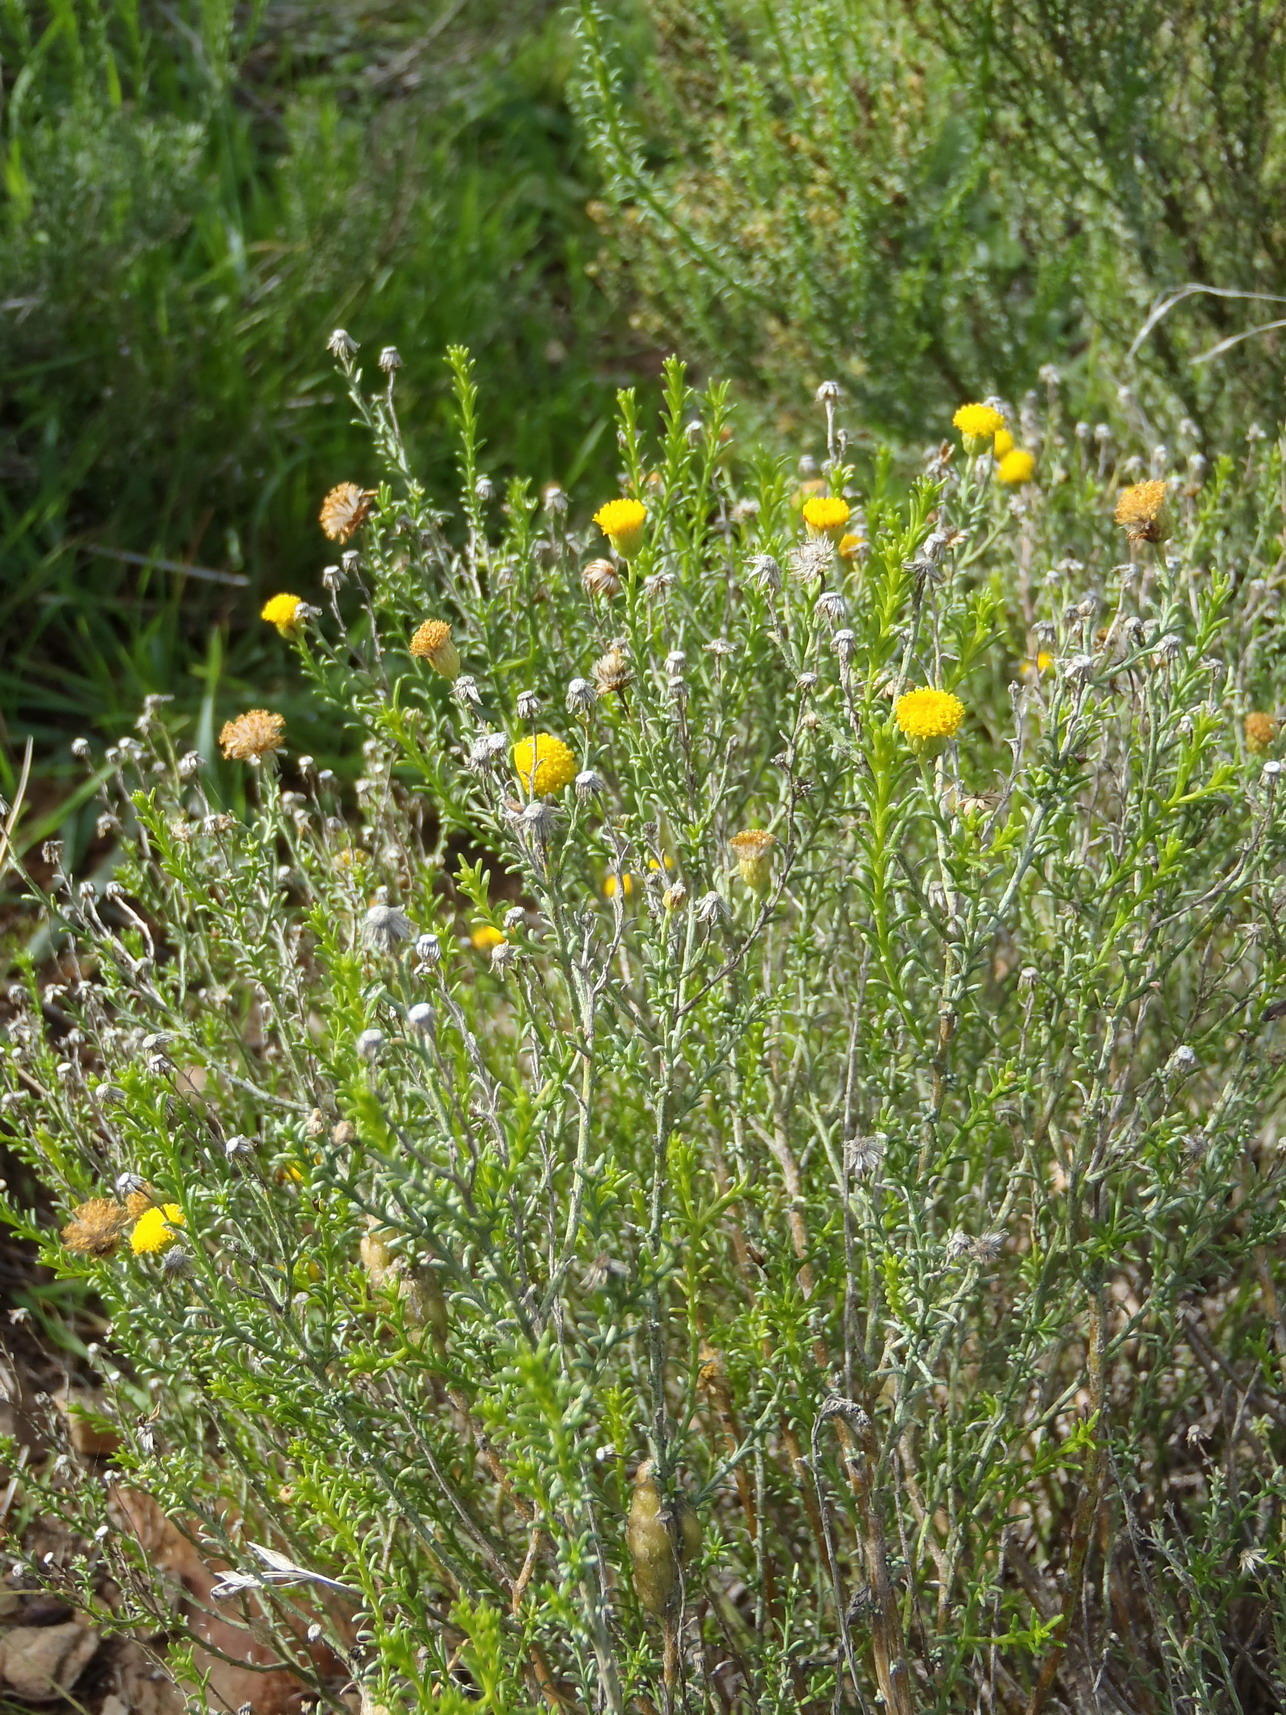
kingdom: Plantae
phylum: Tracheophyta
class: Magnoliopsida
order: Asterales
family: Asteraceae
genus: Chrysocoma
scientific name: Chrysocoma ciliata
